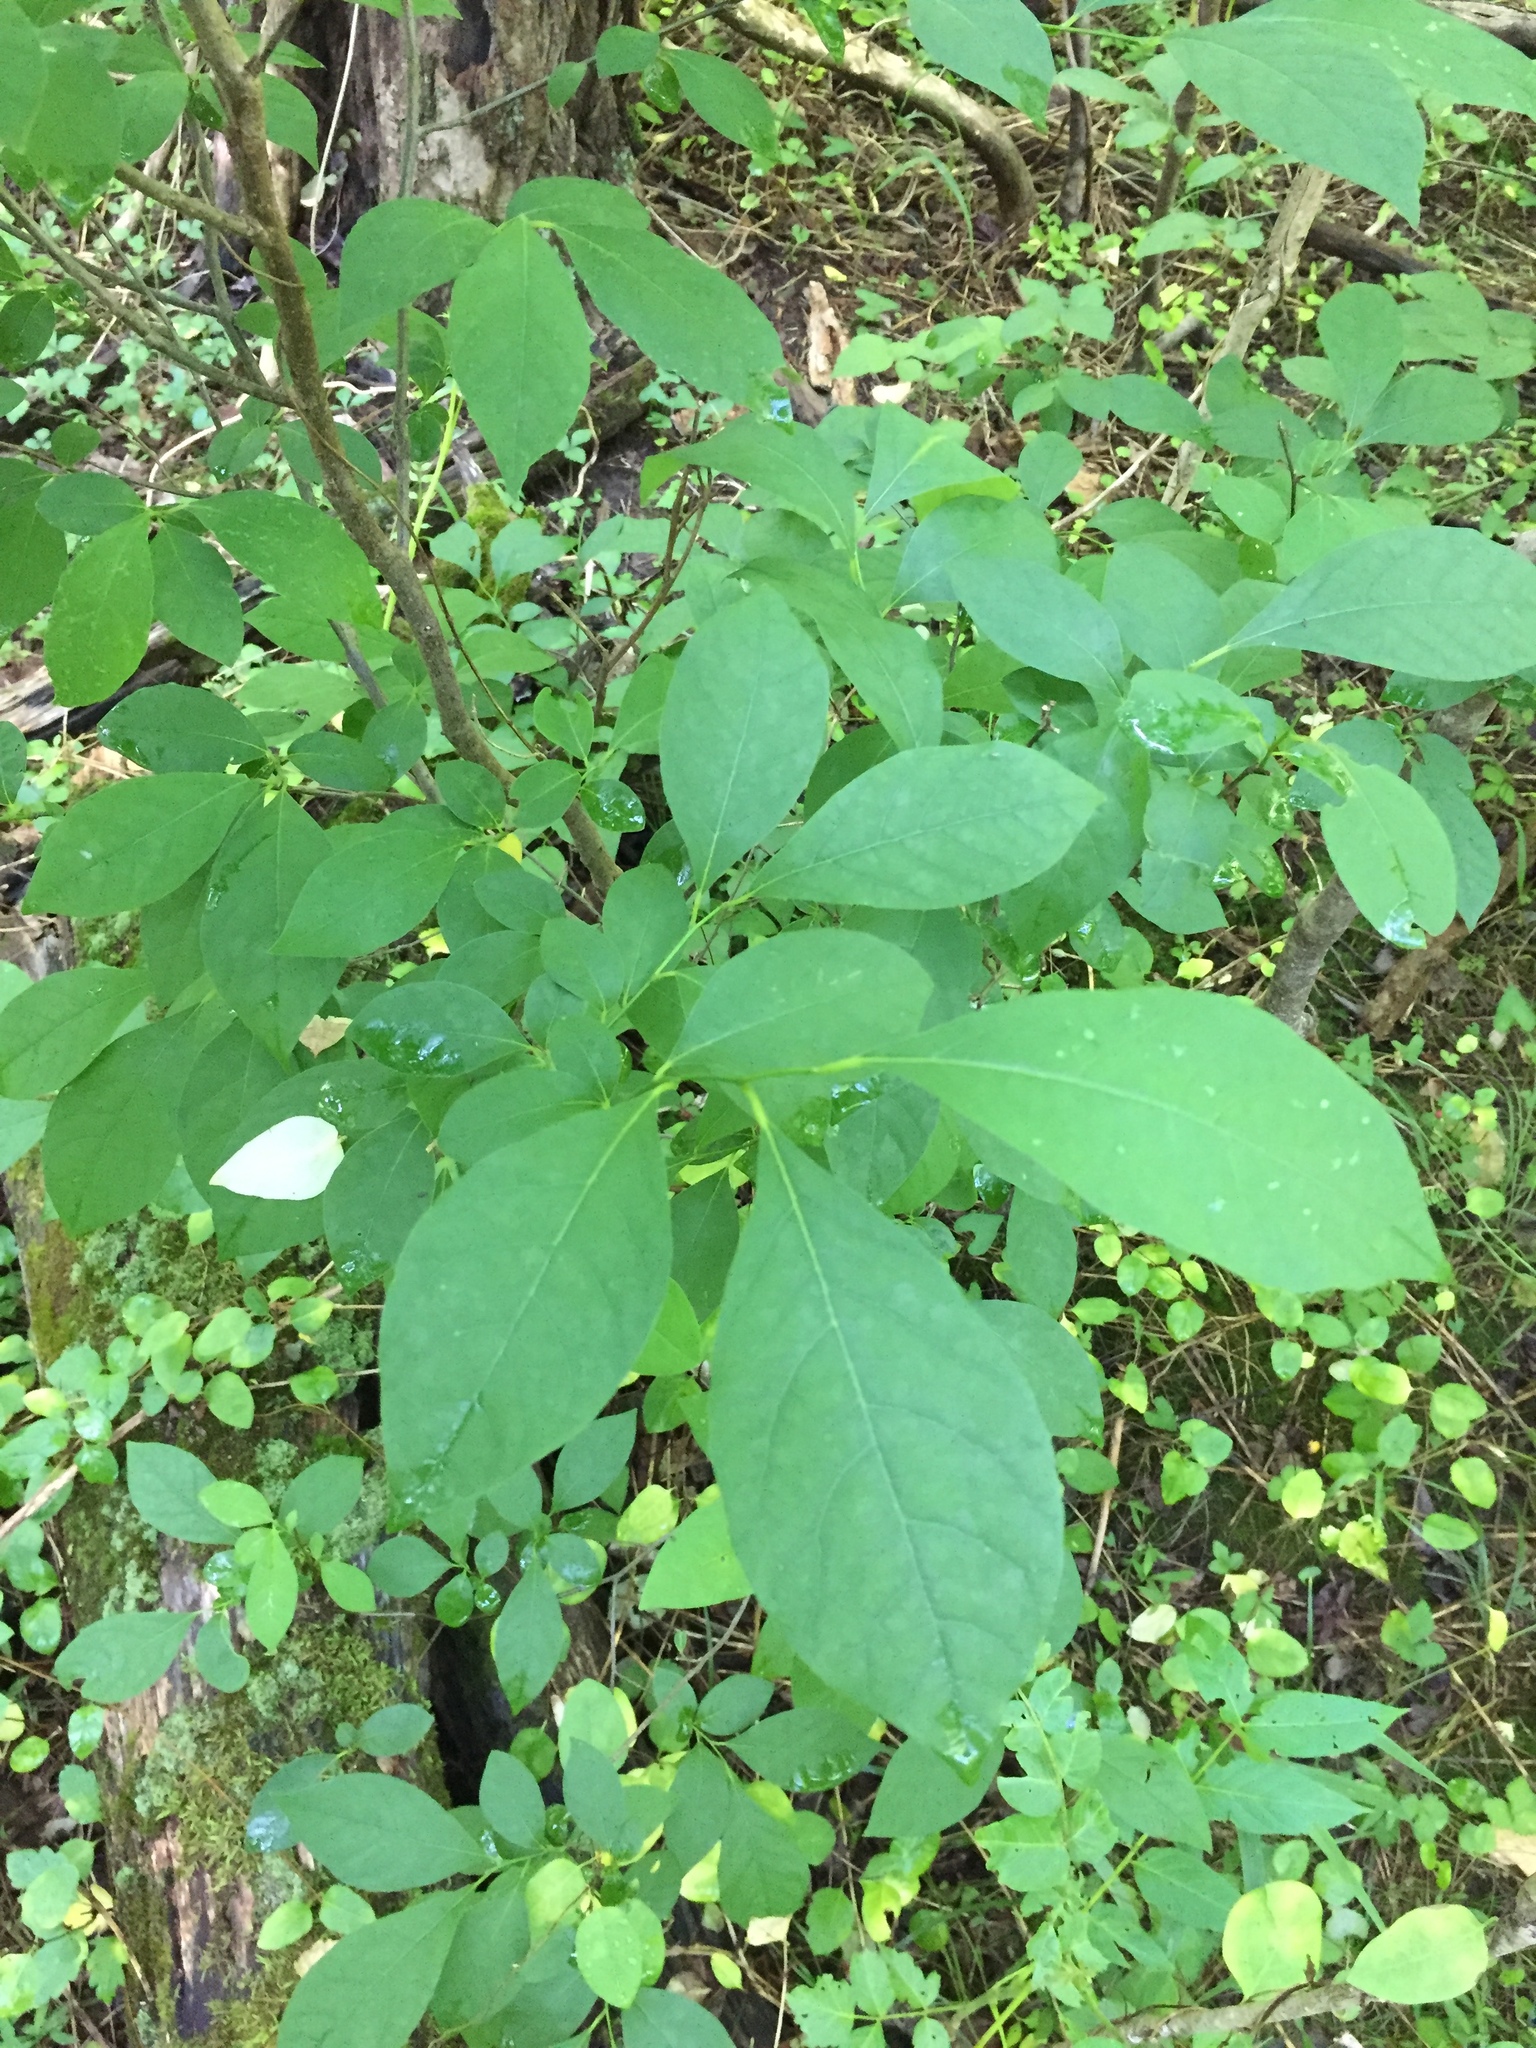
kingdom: Plantae
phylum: Tracheophyta
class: Magnoliopsida
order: Laurales
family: Lauraceae
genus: Lindera
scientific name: Lindera benzoin
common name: Spicebush
